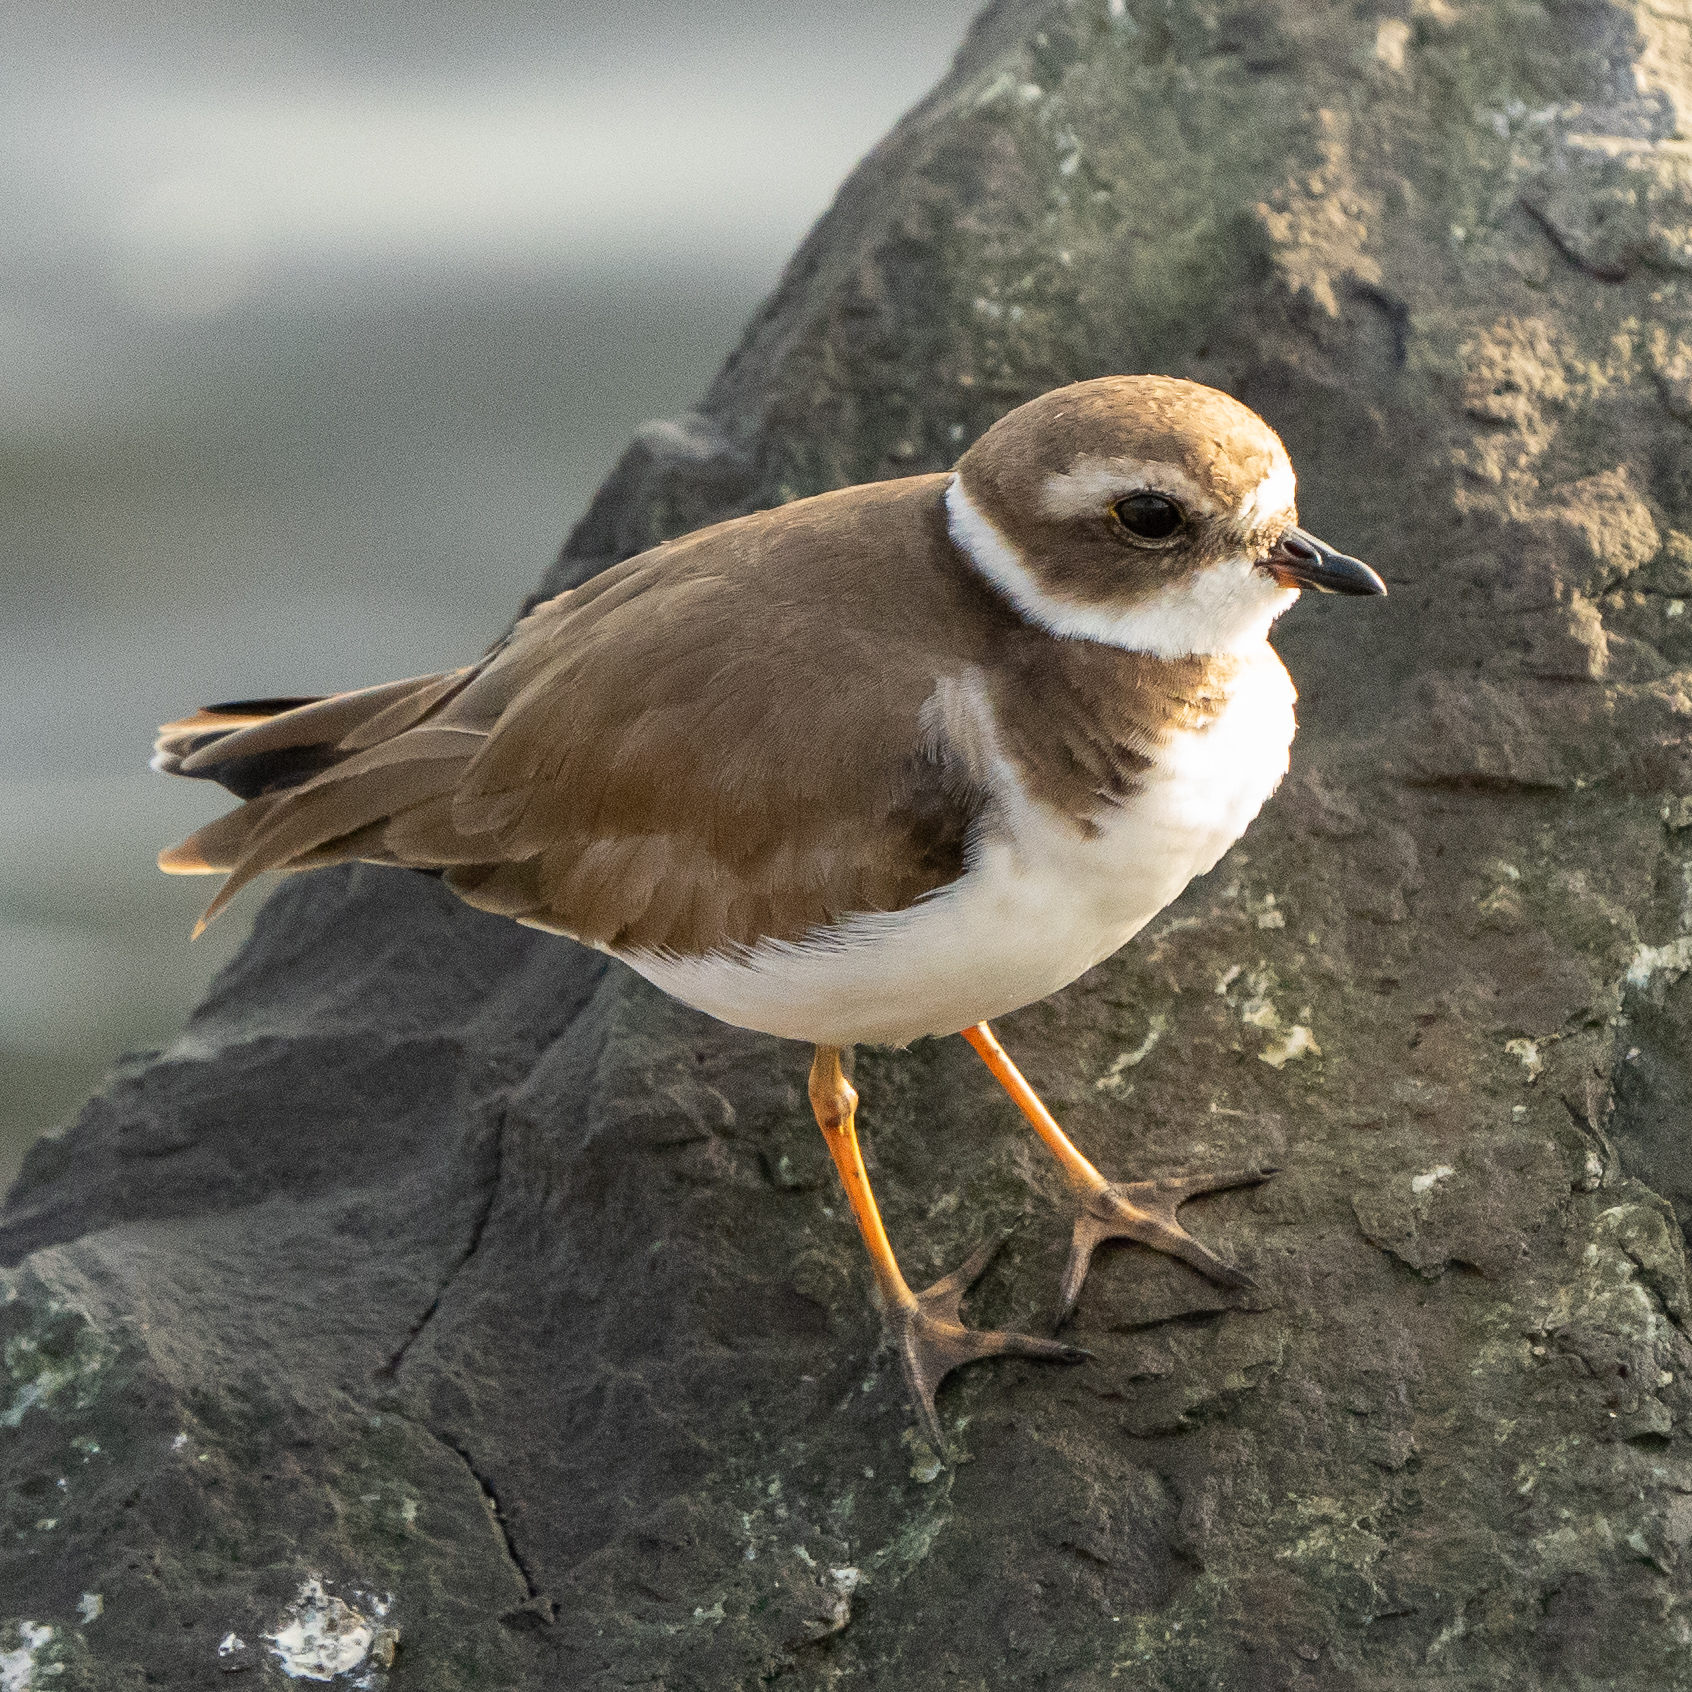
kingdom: Animalia
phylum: Chordata
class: Aves
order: Charadriiformes
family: Charadriidae
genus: Charadrius
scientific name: Charadrius semipalmatus
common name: Semipalmated plover
